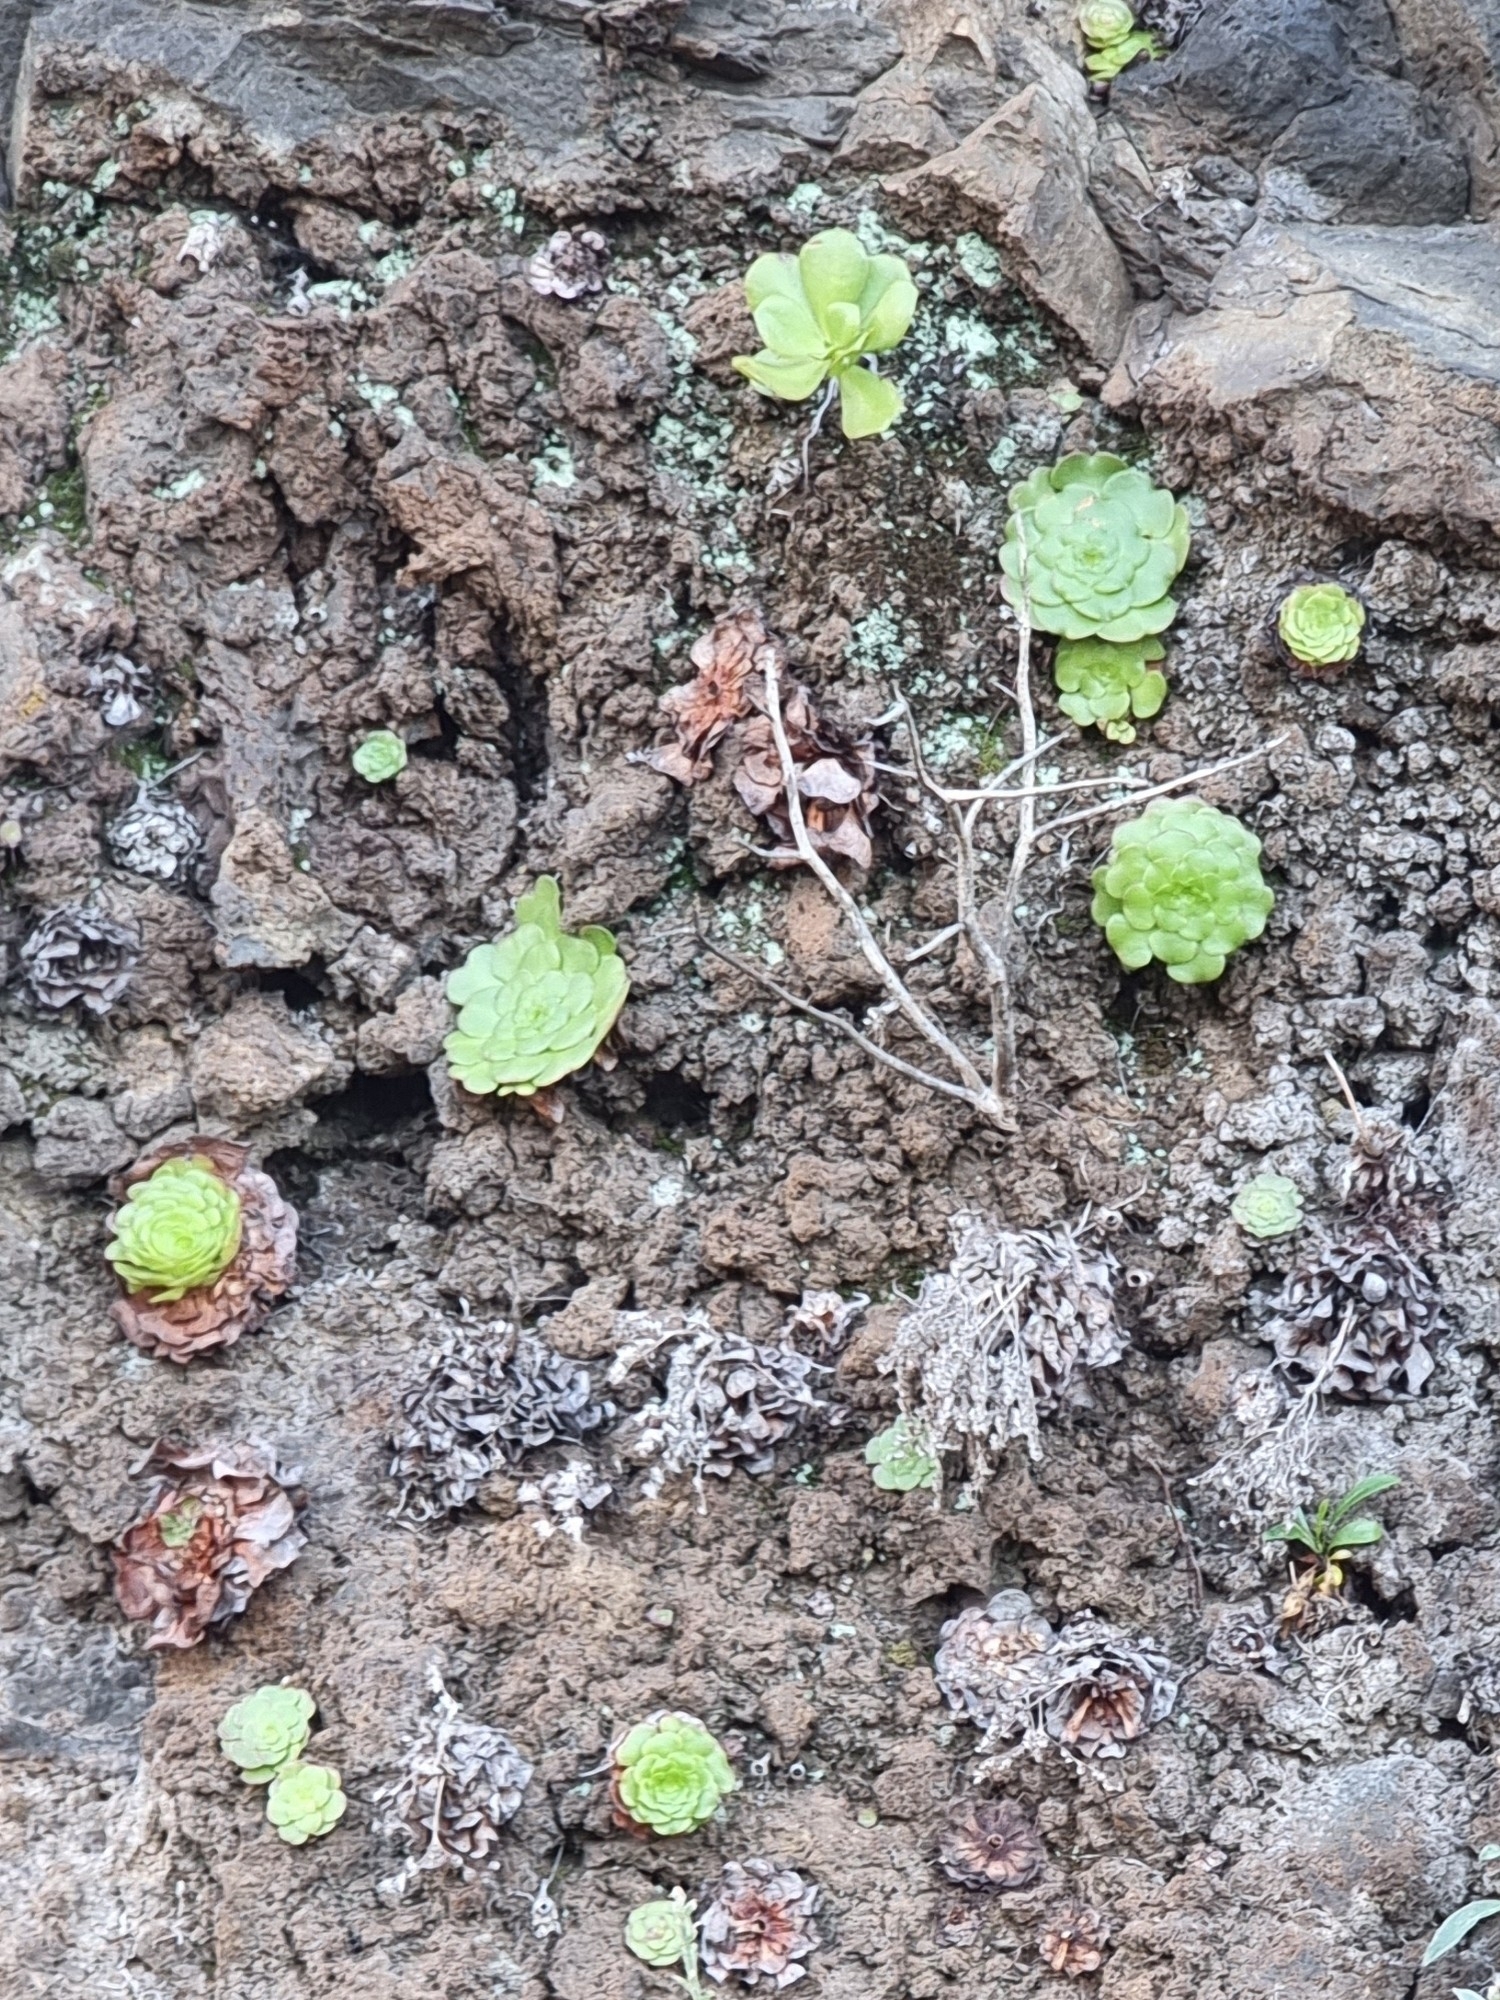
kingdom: Plantae
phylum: Tracheophyta
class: Magnoliopsida
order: Saxifragales
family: Crassulaceae
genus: Aeonium
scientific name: Aeonium glandulosum
